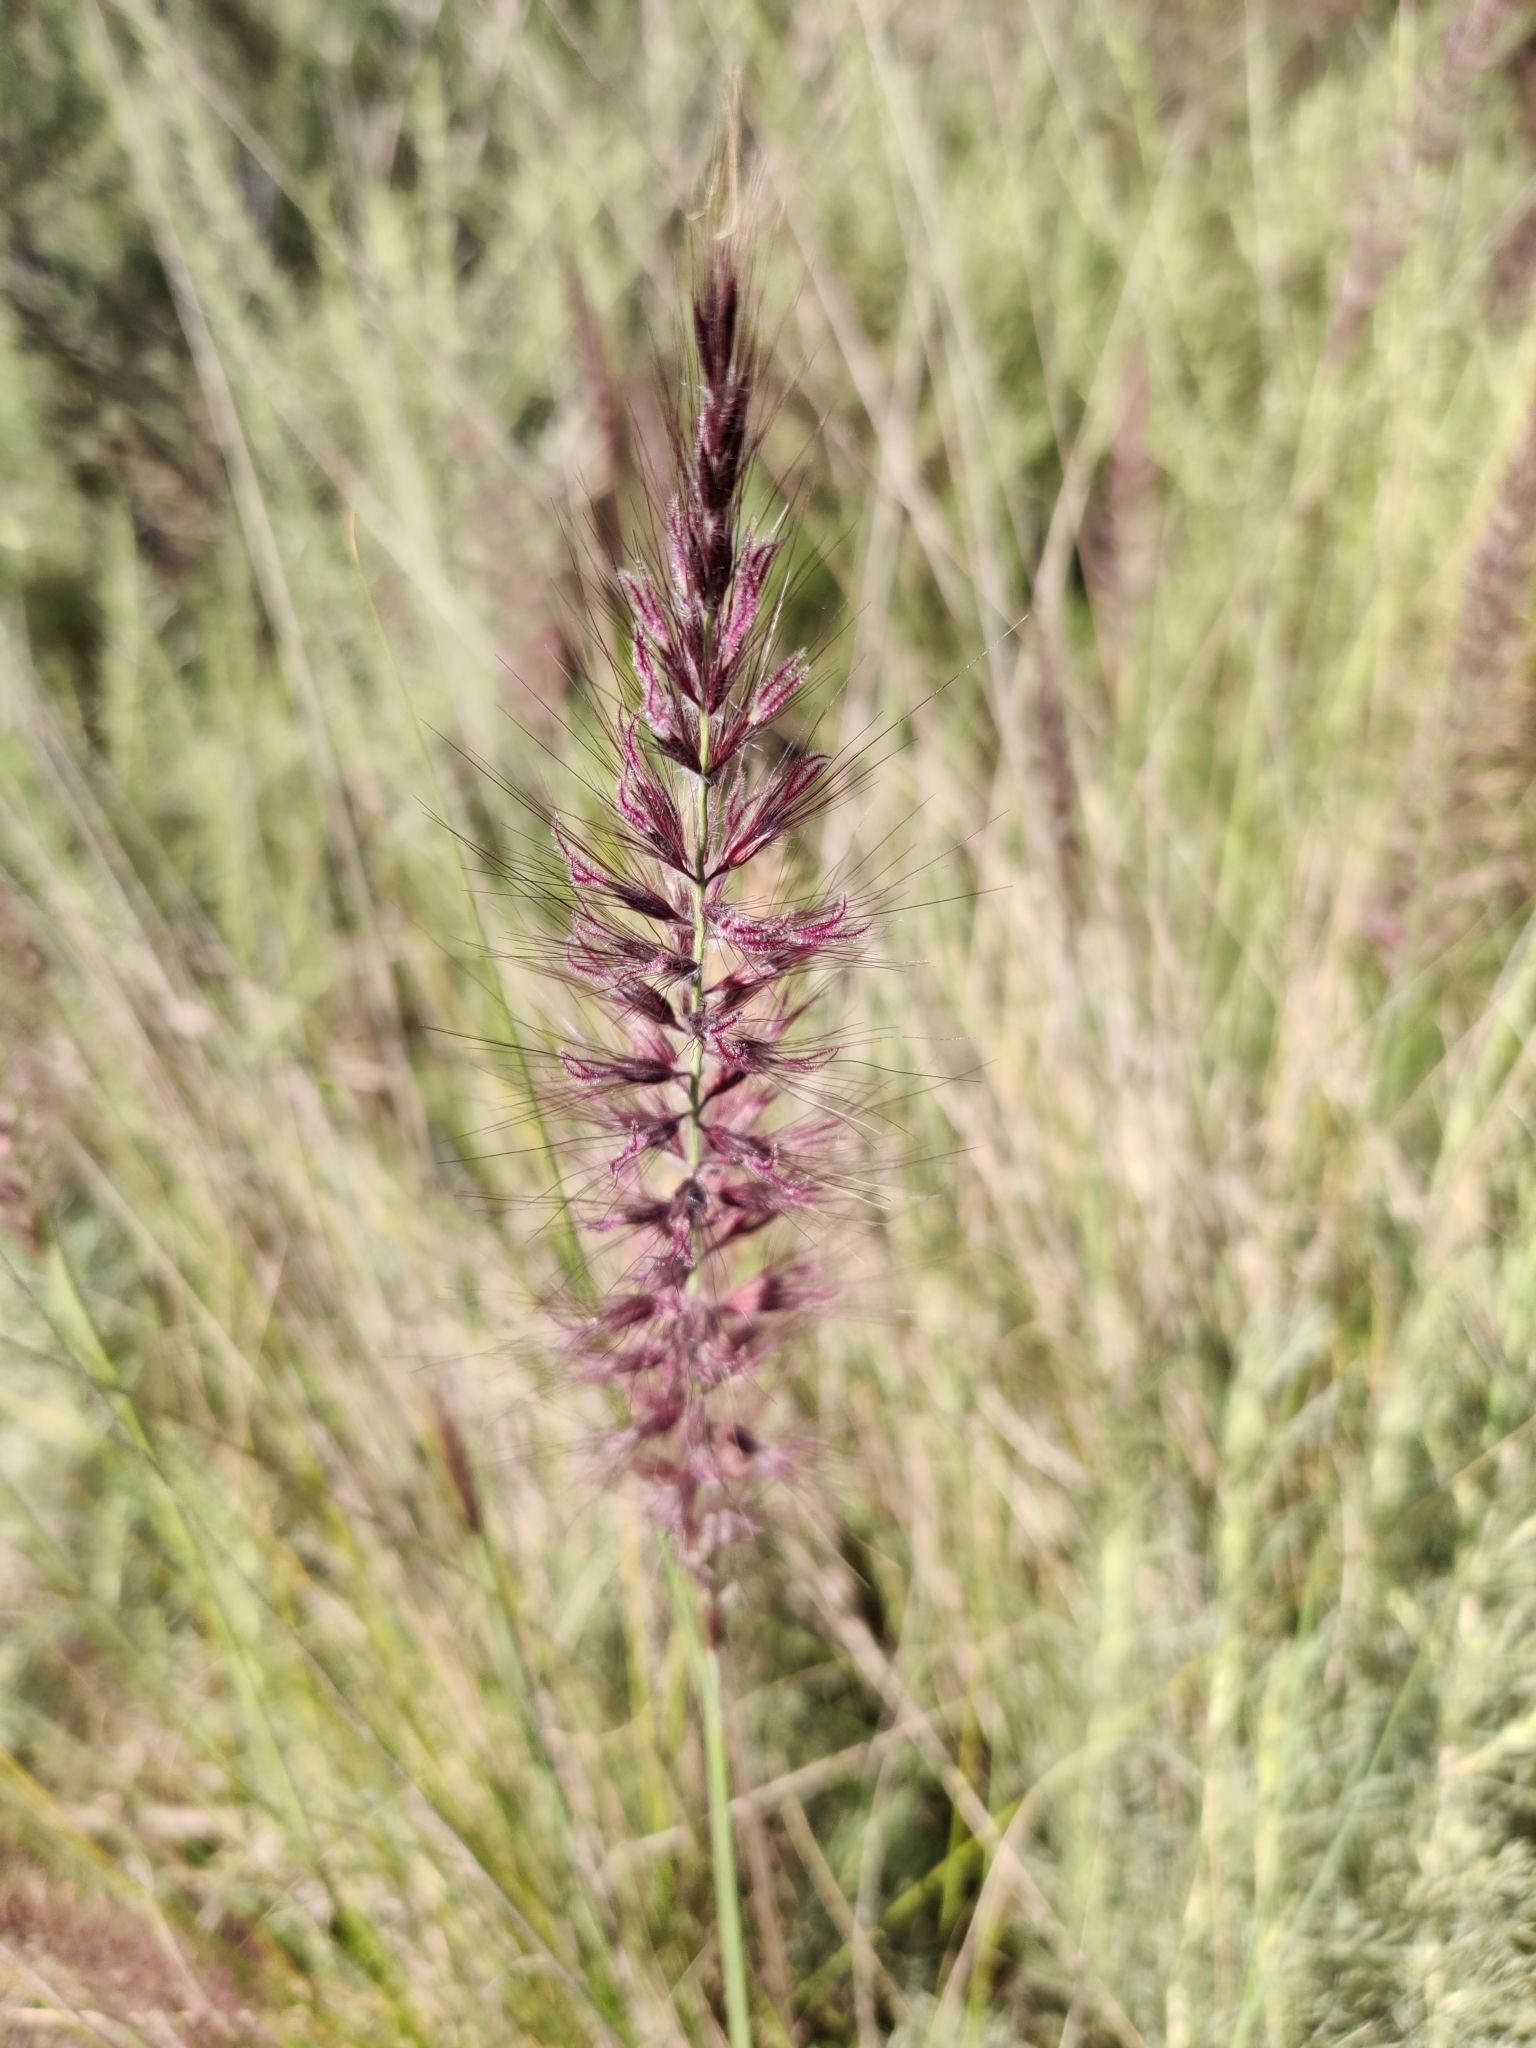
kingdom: Plantae
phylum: Tracheophyta
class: Liliopsida
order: Poales
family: Poaceae
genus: Cenchrus
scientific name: Cenchrus setaceus
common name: Crimson fountaingrass
